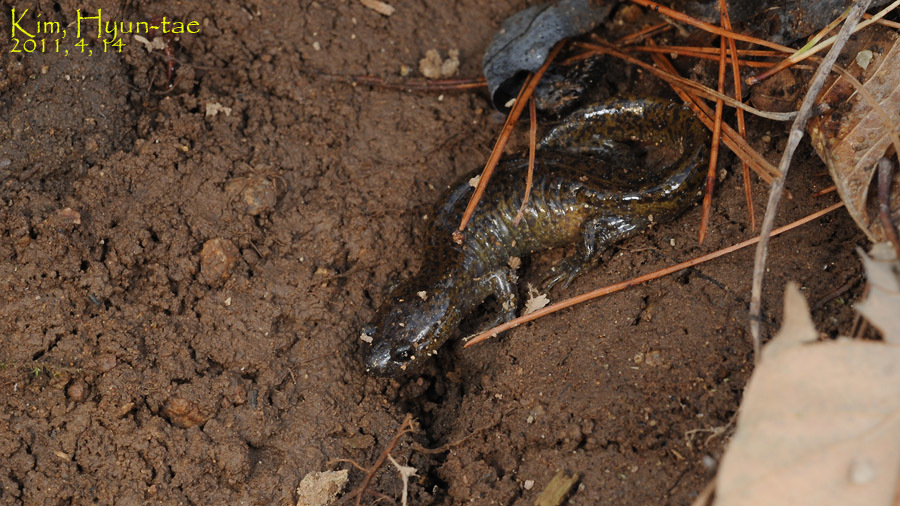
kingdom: Animalia
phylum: Chordata
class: Amphibia
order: Caudata
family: Hynobiidae
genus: Hynobius
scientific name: Hynobius leechii
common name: Gensan salamander
